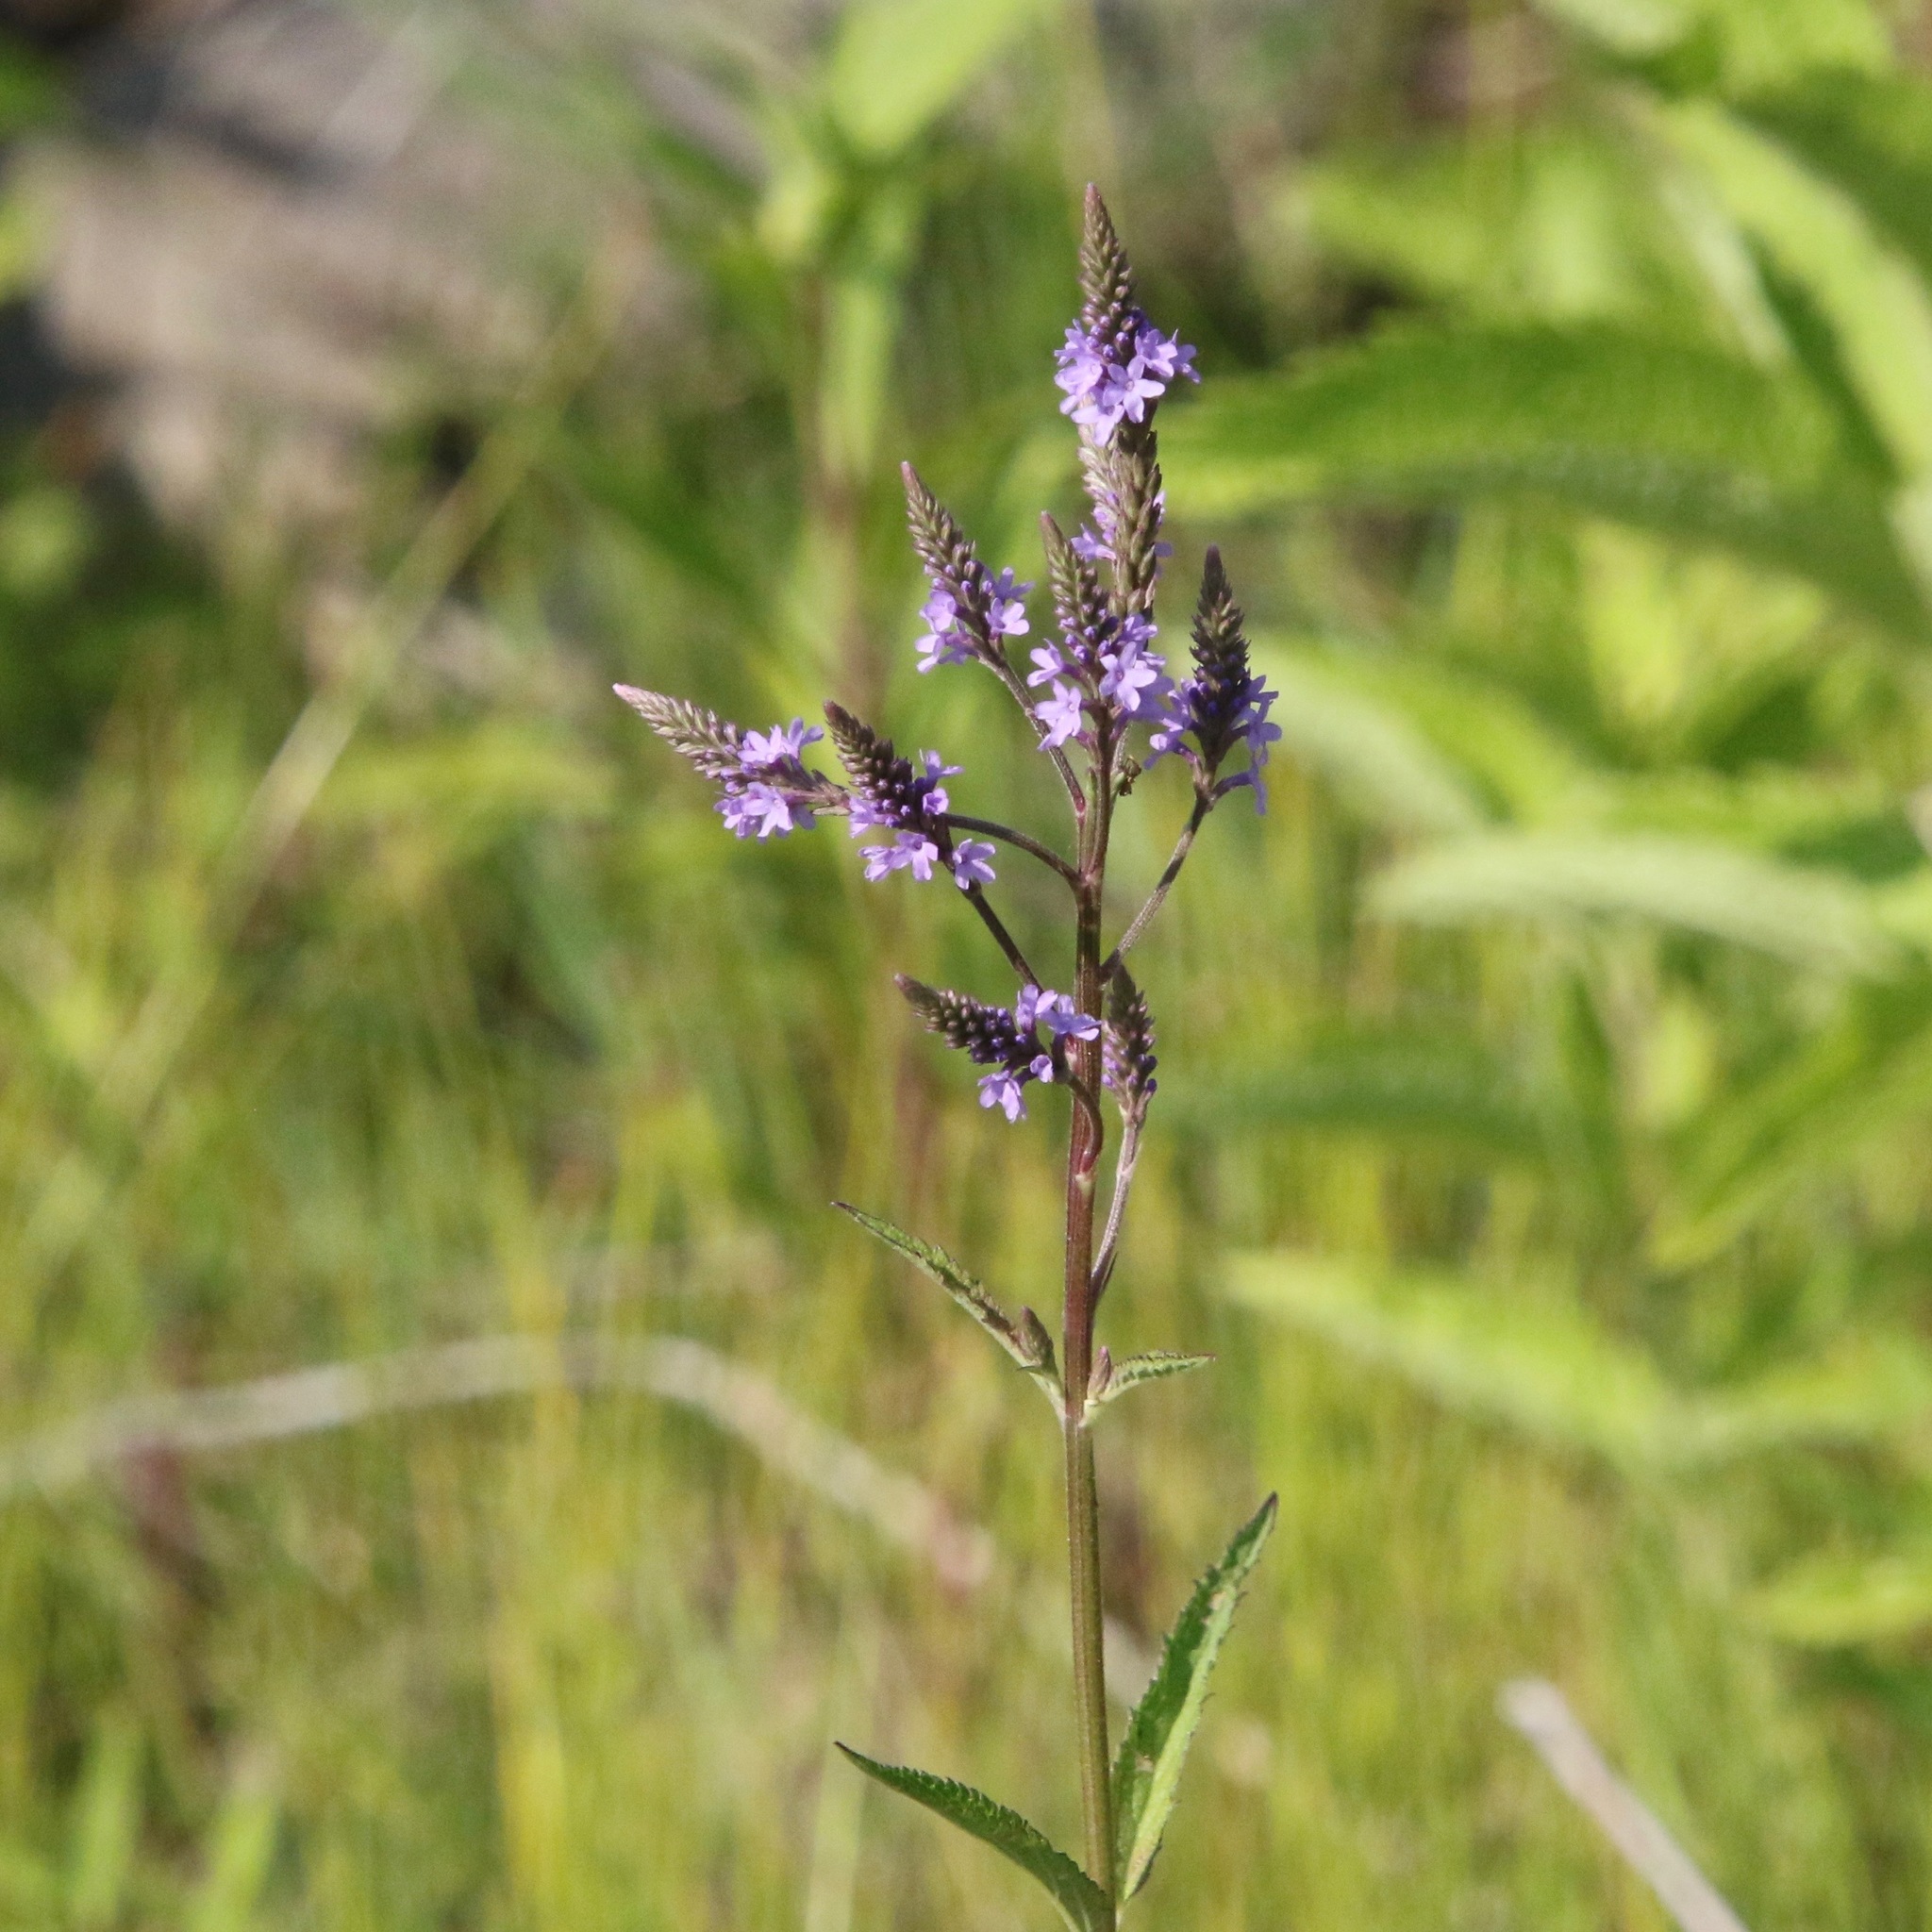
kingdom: Plantae
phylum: Tracheophyta
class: Magnoliopsida
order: Lamiales
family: Verbenaceae
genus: Verbena
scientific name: Verbena hastata
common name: American blue vervain
